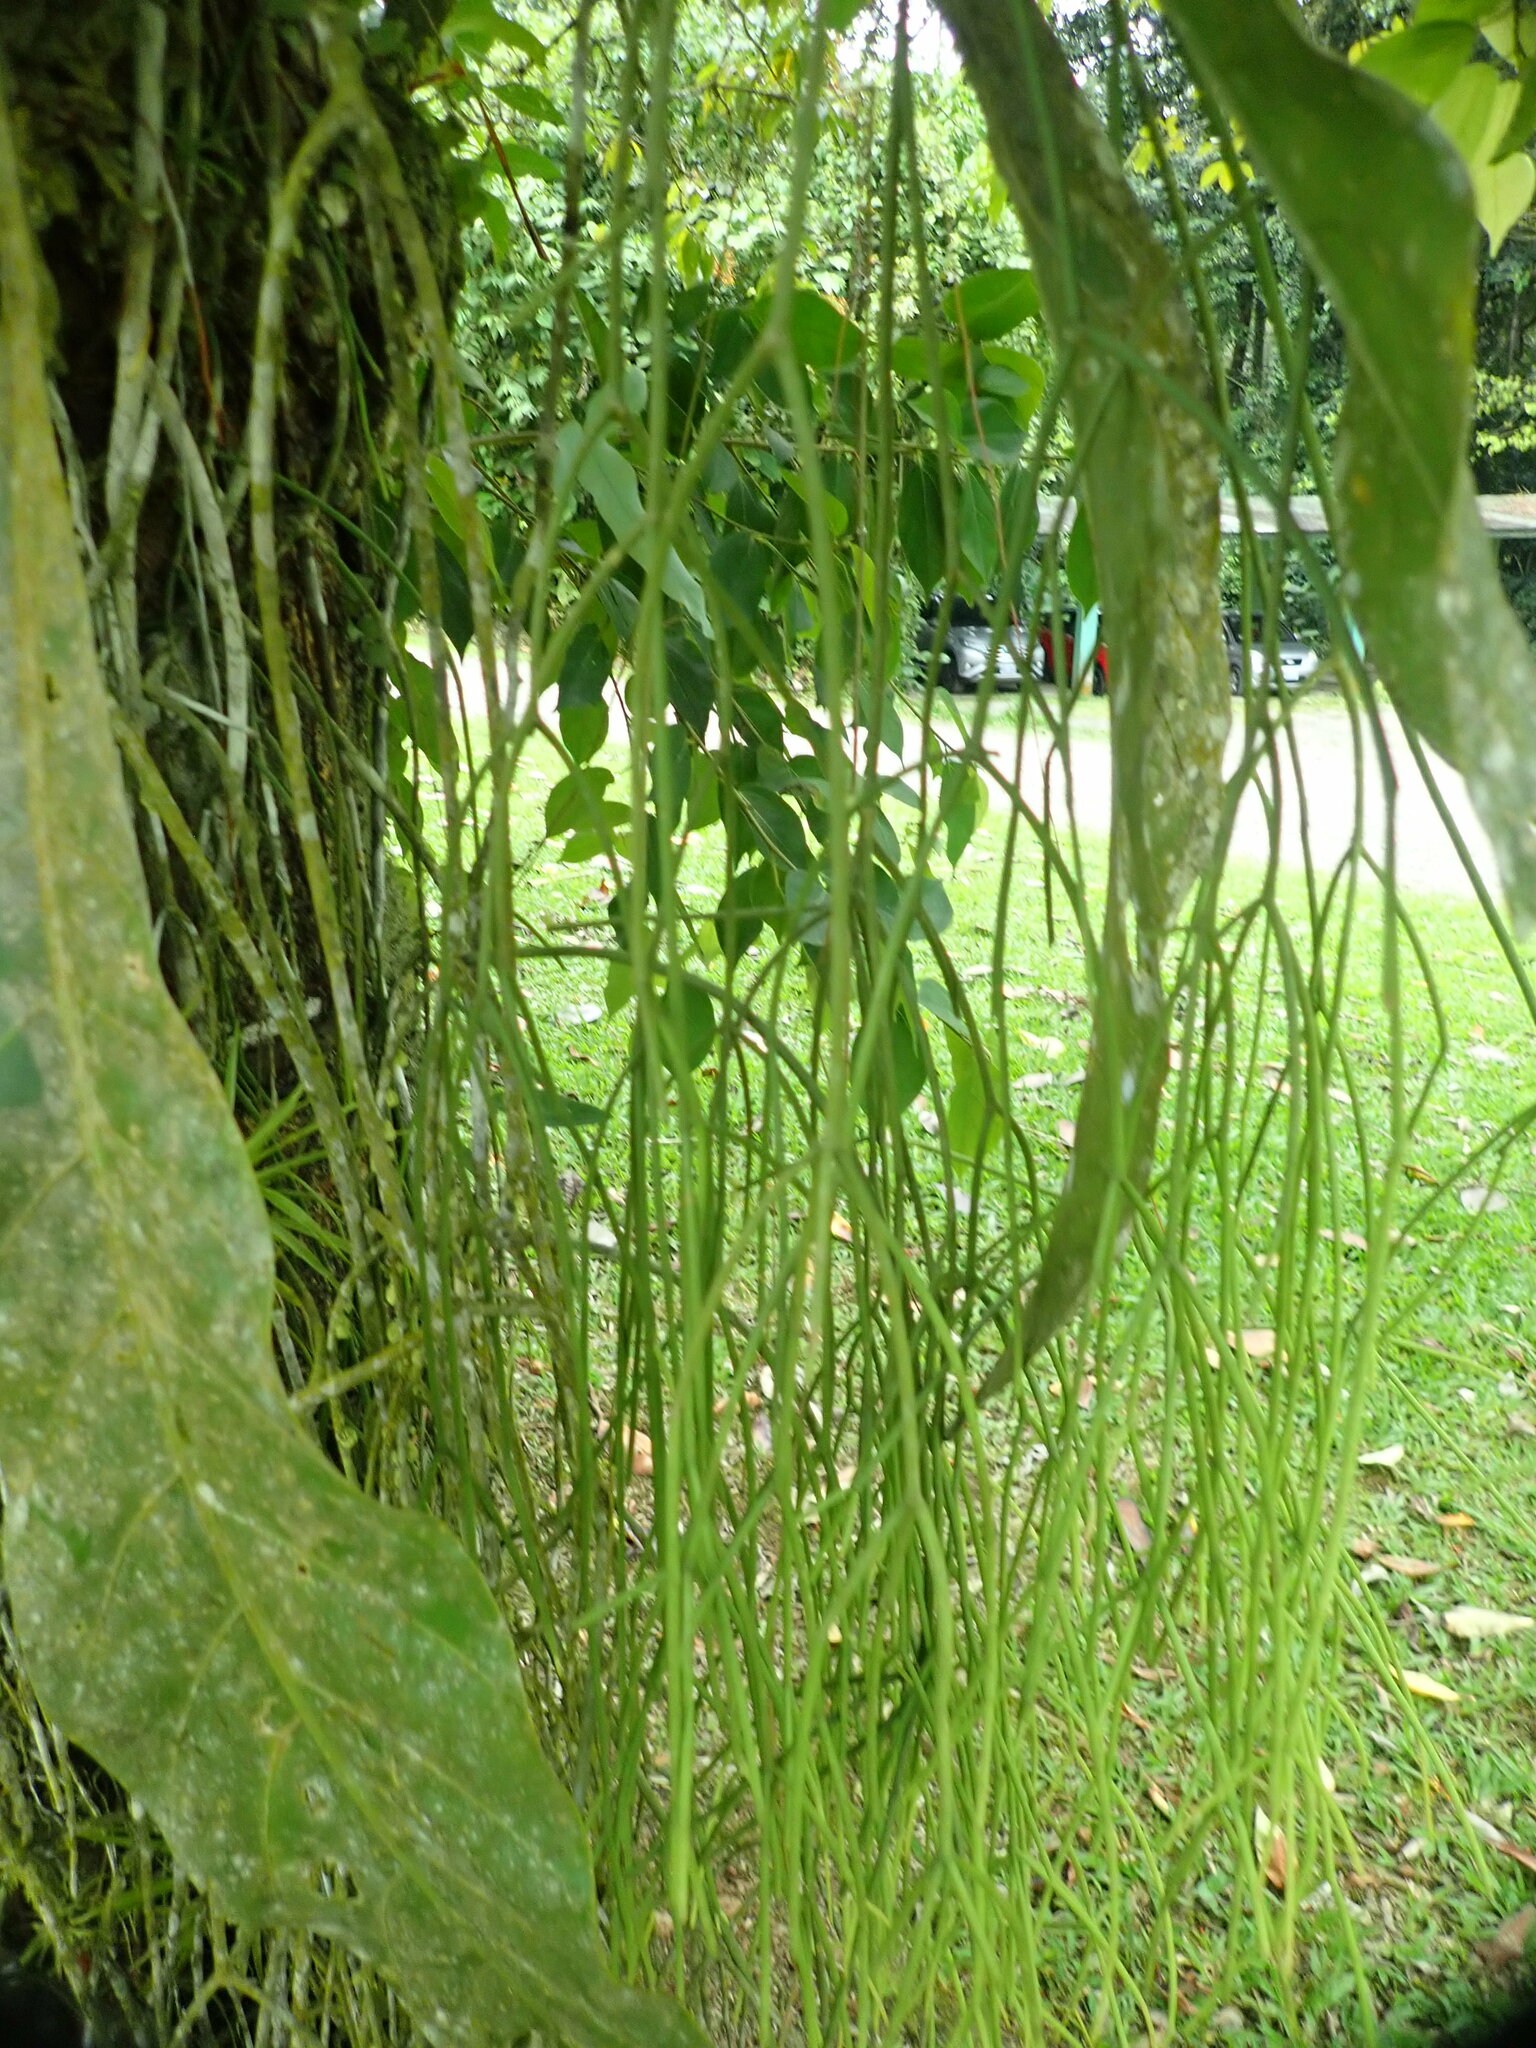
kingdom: Plantae
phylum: Tracheophyta
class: Magnoliopsida
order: Caryophyllales
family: Cactaceae
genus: Rhipsalis
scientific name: Rhipsalis baccifera
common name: Mistletoe cactus
